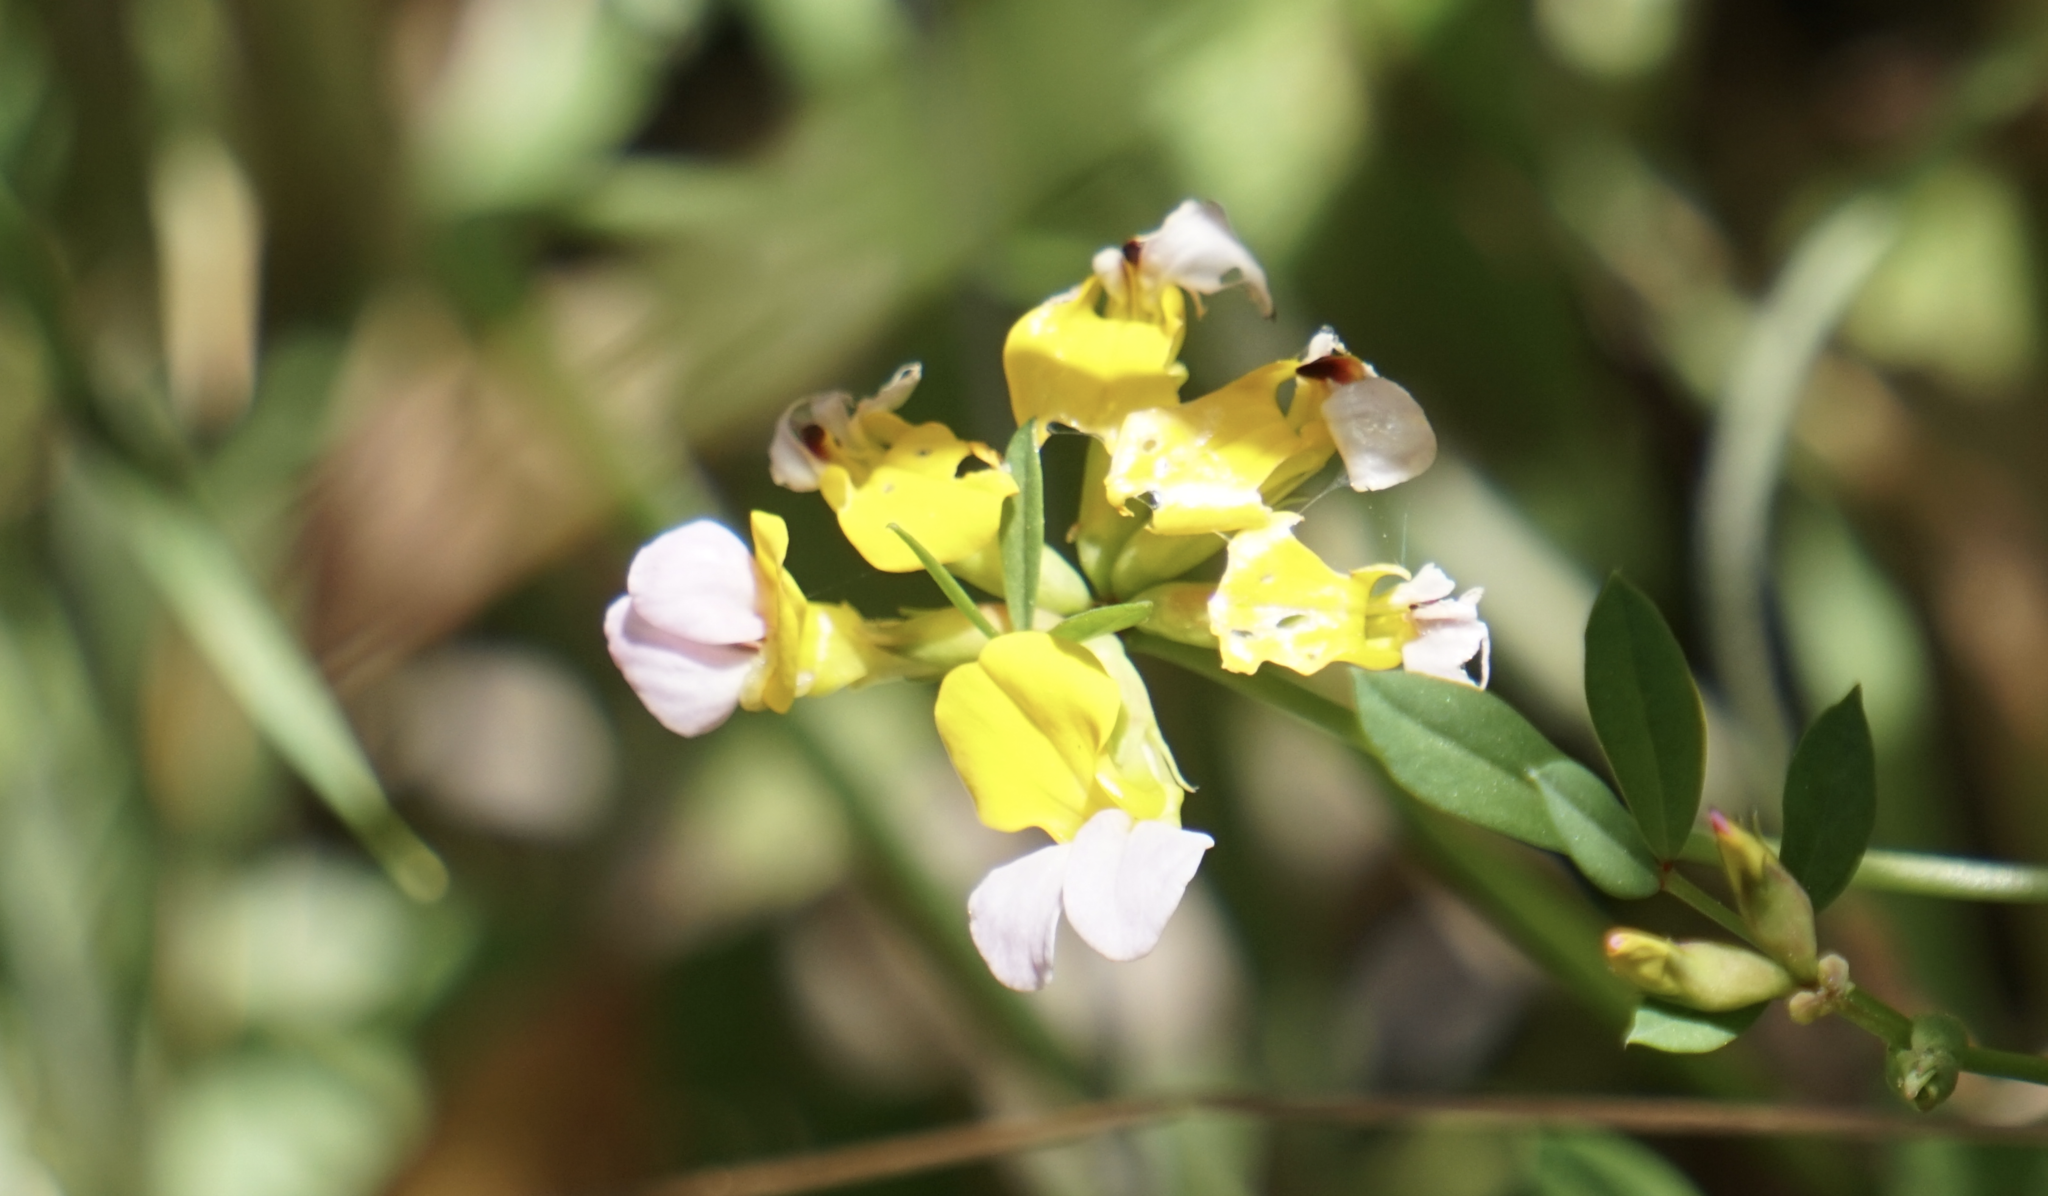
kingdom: Plantae
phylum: Tracheophyta
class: Magnoliopsida
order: Fabales
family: Fabaceae
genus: Hosackia
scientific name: Hosackia gracilis
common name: Seaside bird's-foot lotus
